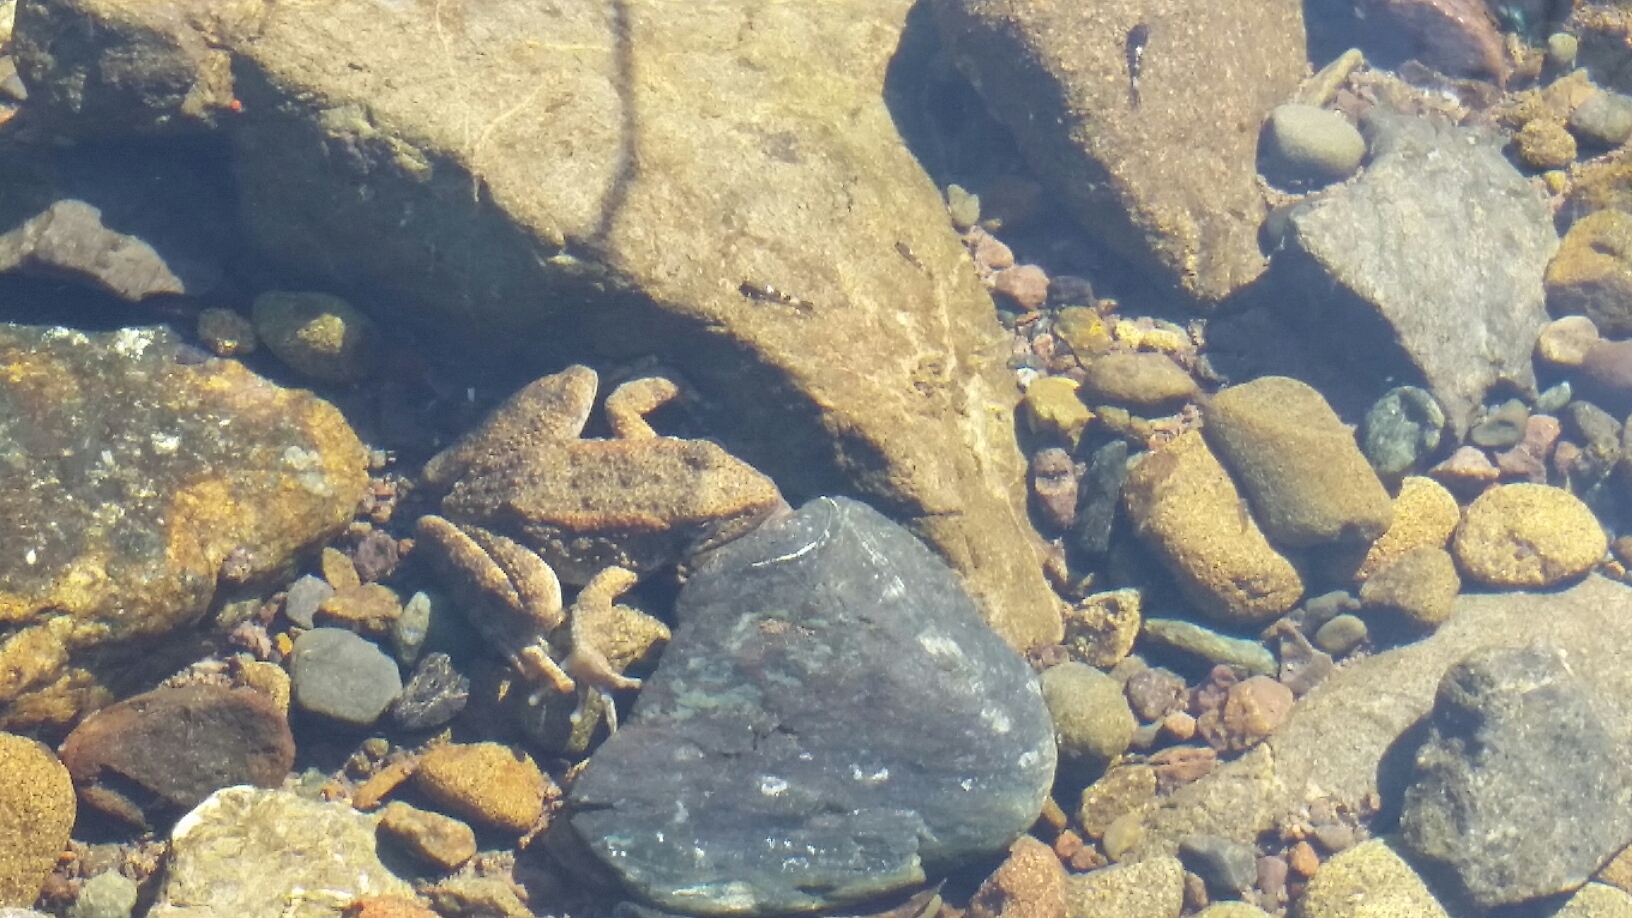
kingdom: Animalia
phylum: Chordata
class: Amphibia
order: Anura
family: Ranidae
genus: Rana
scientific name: Rana boylii
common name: Foothill yellow-legged frog
